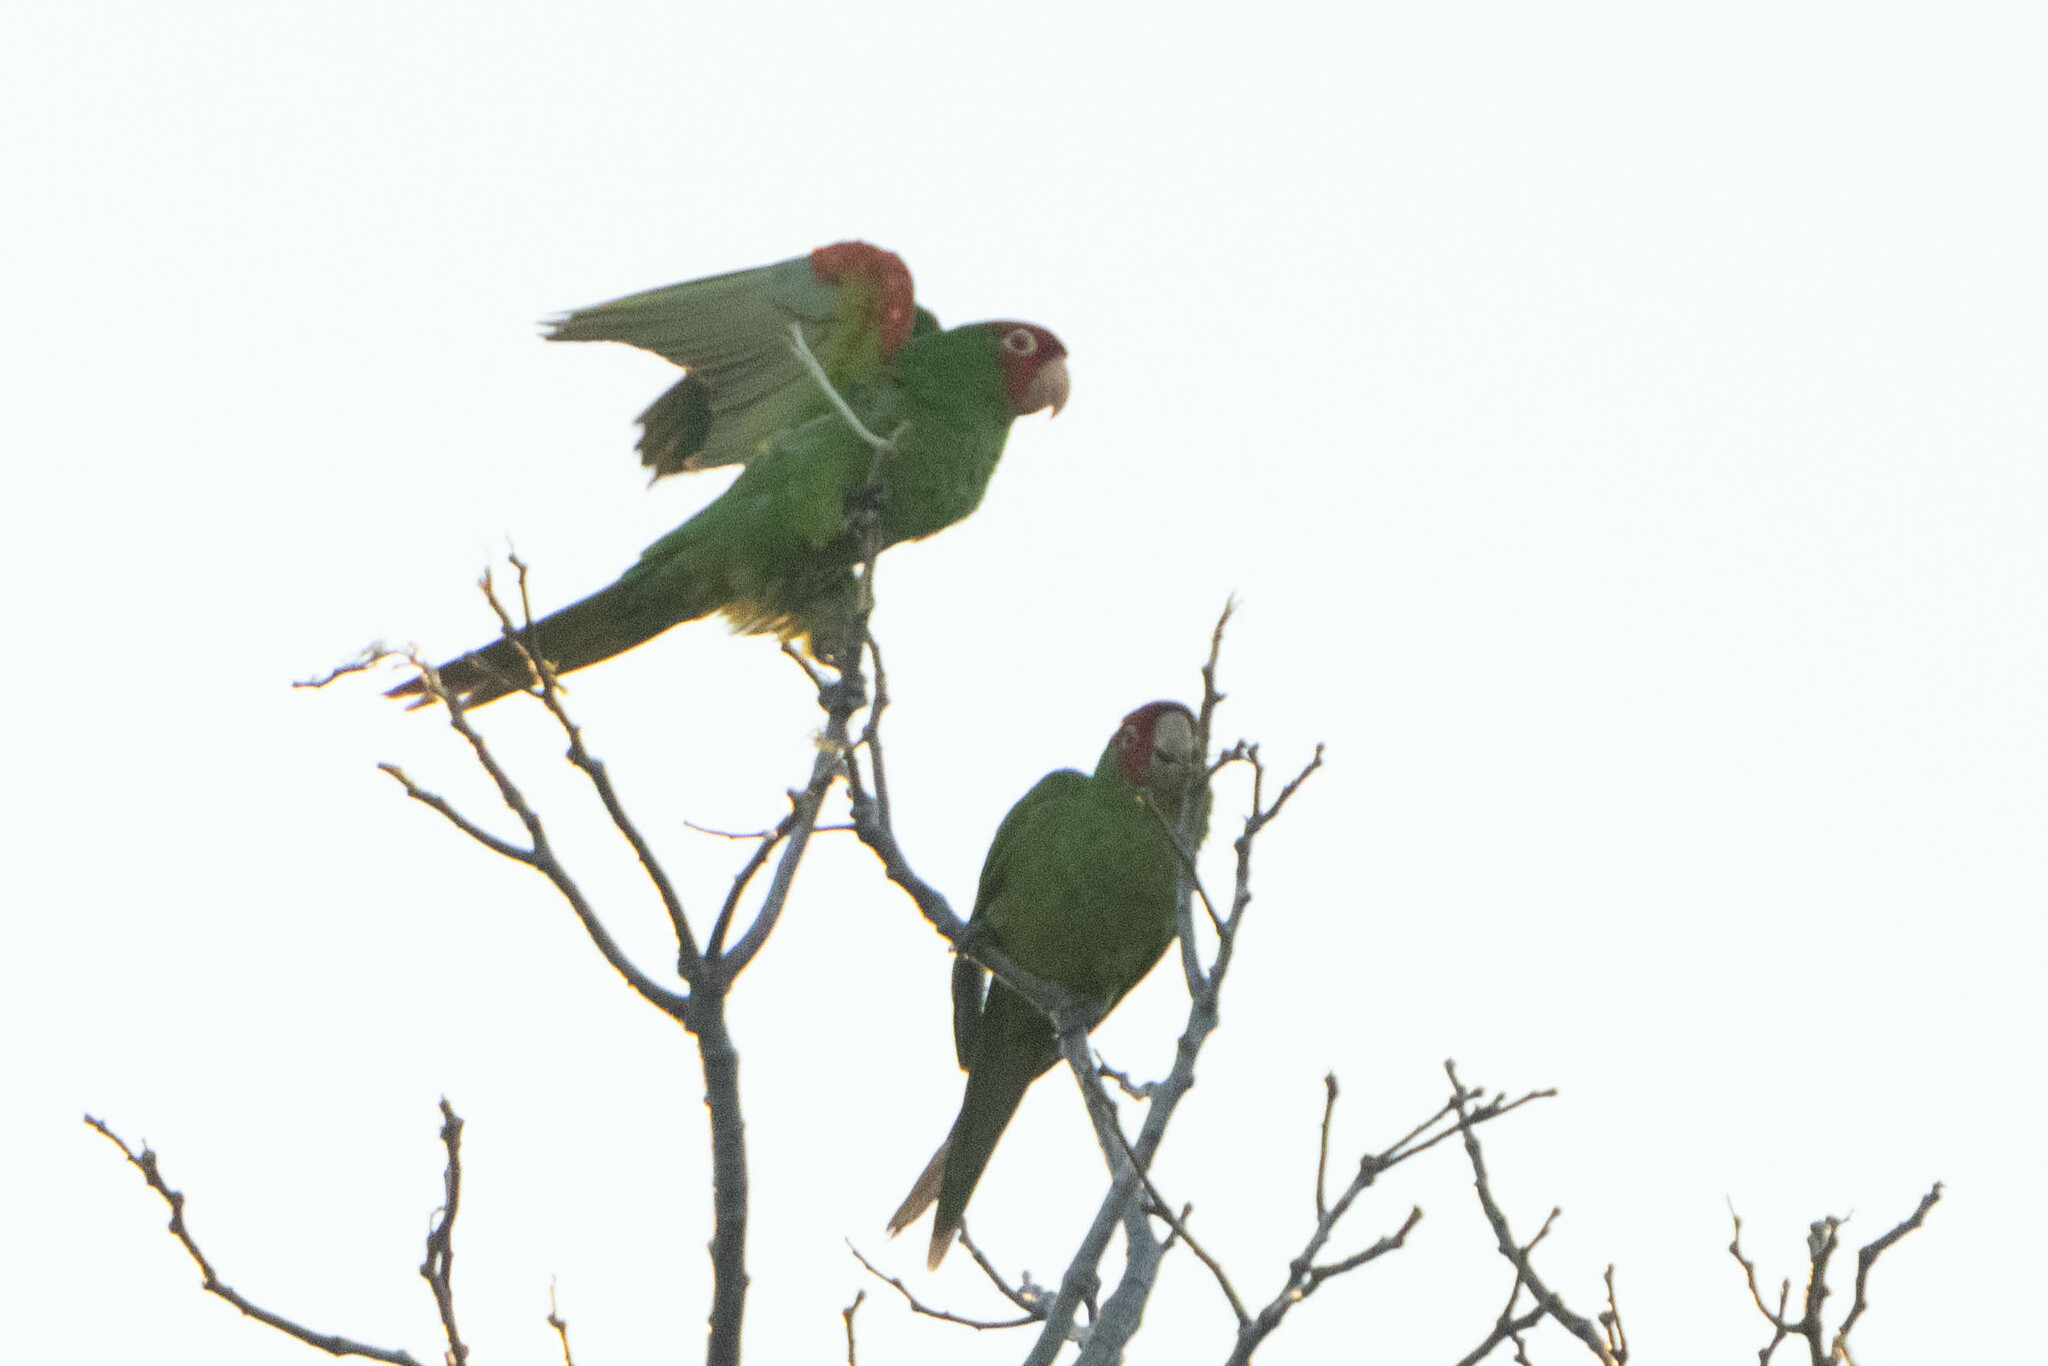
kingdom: Animalia
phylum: Chordata
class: Aves
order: Psittaciformes
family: Psittacidae
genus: Aratinga
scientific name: Aratinga erythrogenys
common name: Red-masked parakeet
